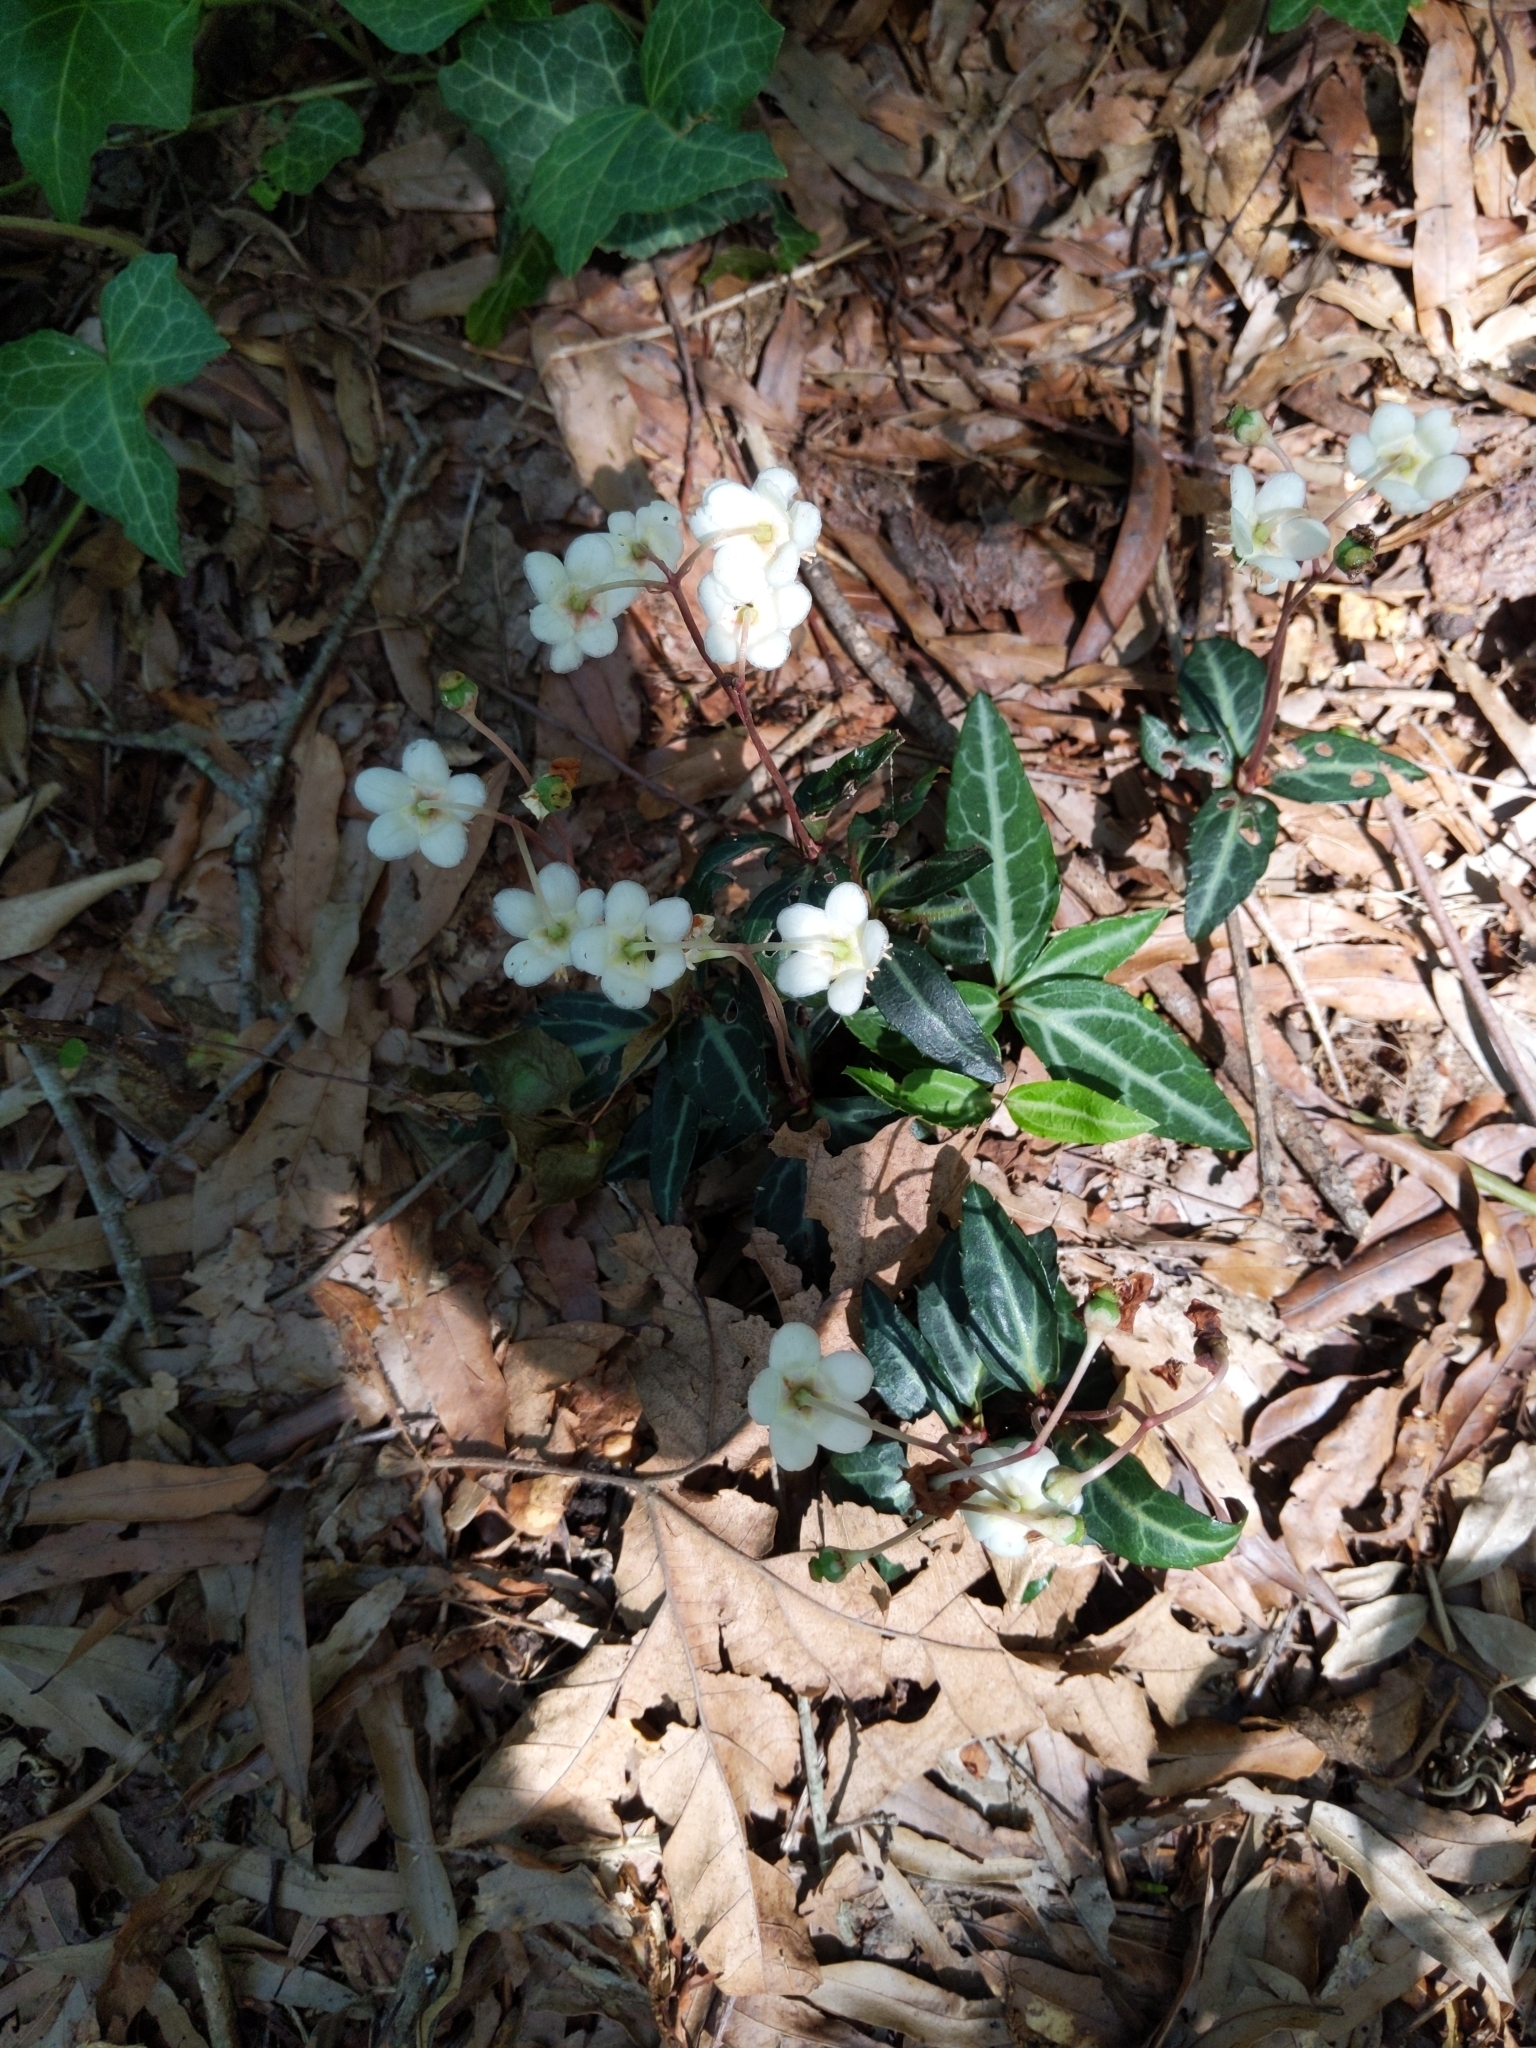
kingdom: Plantae
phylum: Tracheophyta
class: Magnoliopsida
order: Ericales
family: Ericaceae
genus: Chimaphila
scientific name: Chimaphila maculata
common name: Spotted pipsissewa
